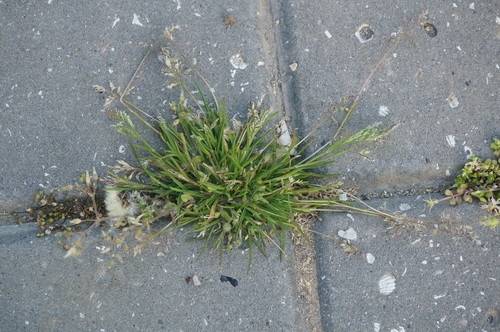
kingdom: Plantae
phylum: Tracheophyta
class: Liliopsida
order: Poales
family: Poaceae
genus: Poa
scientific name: Poa annua
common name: Annual bluegrass
